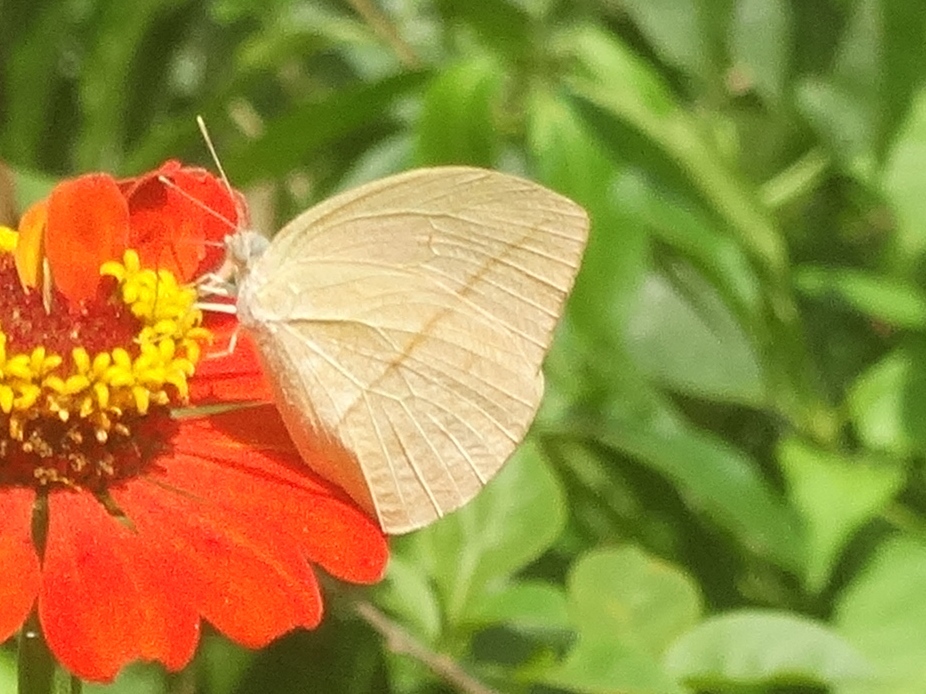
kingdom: Animalia
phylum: Arthropoda
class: Insecta
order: Lepidoptera
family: Pieridae
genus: Rhabdodryas
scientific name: Rhabdodryas trite
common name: Straight-lined sulphur
